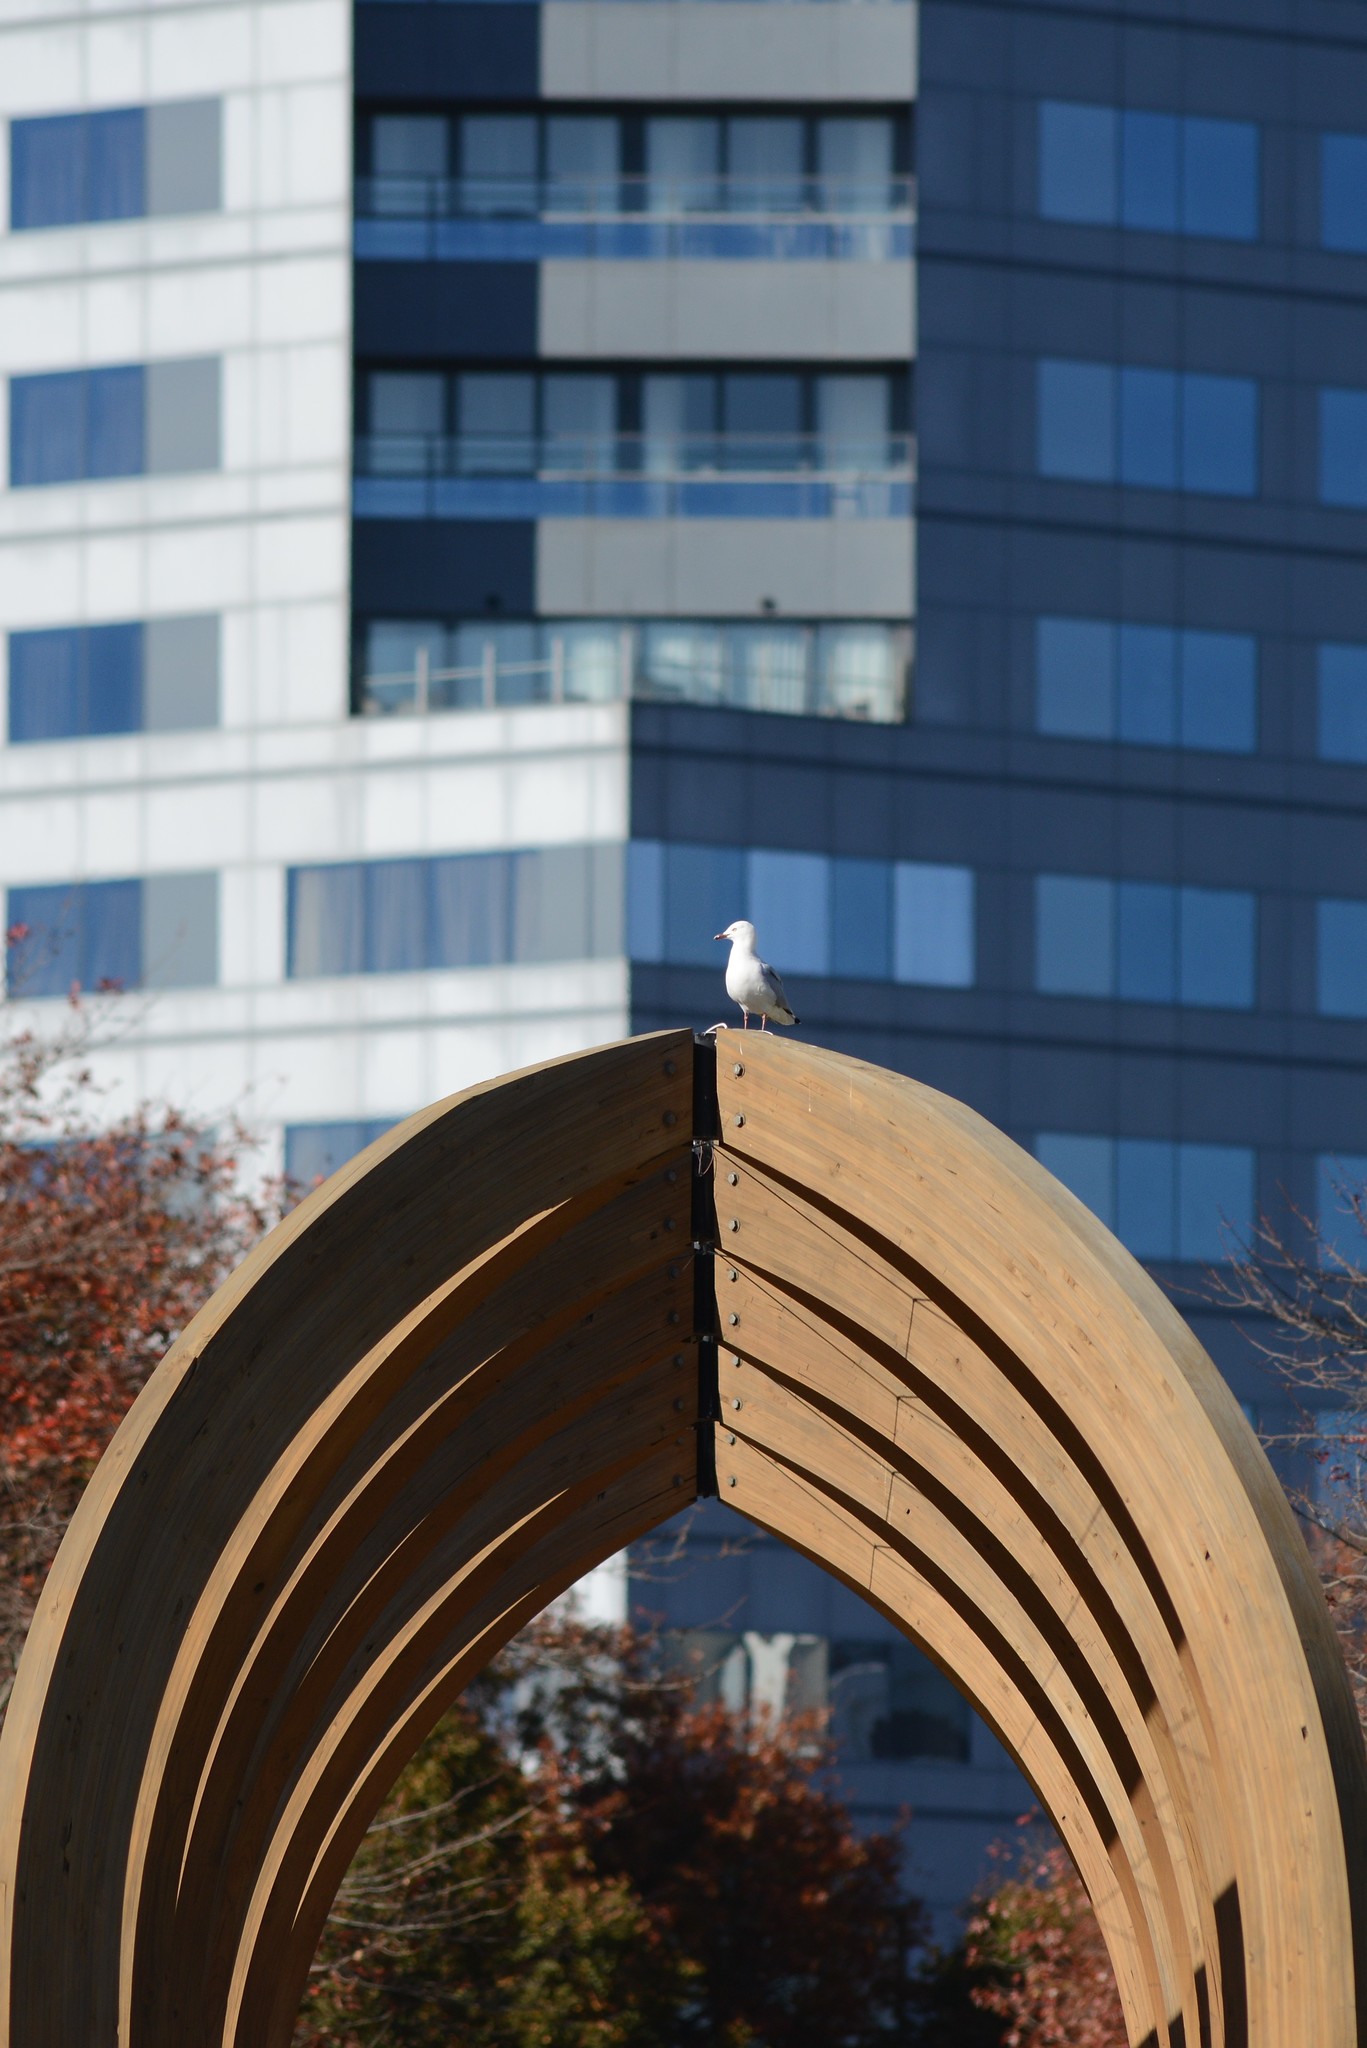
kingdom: Animalia
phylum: Chordata
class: Aves
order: Charadriiformes
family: Laridae
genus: Chroicocephalus
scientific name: Chroicocephalus novaehollandiae
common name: Silver gull
